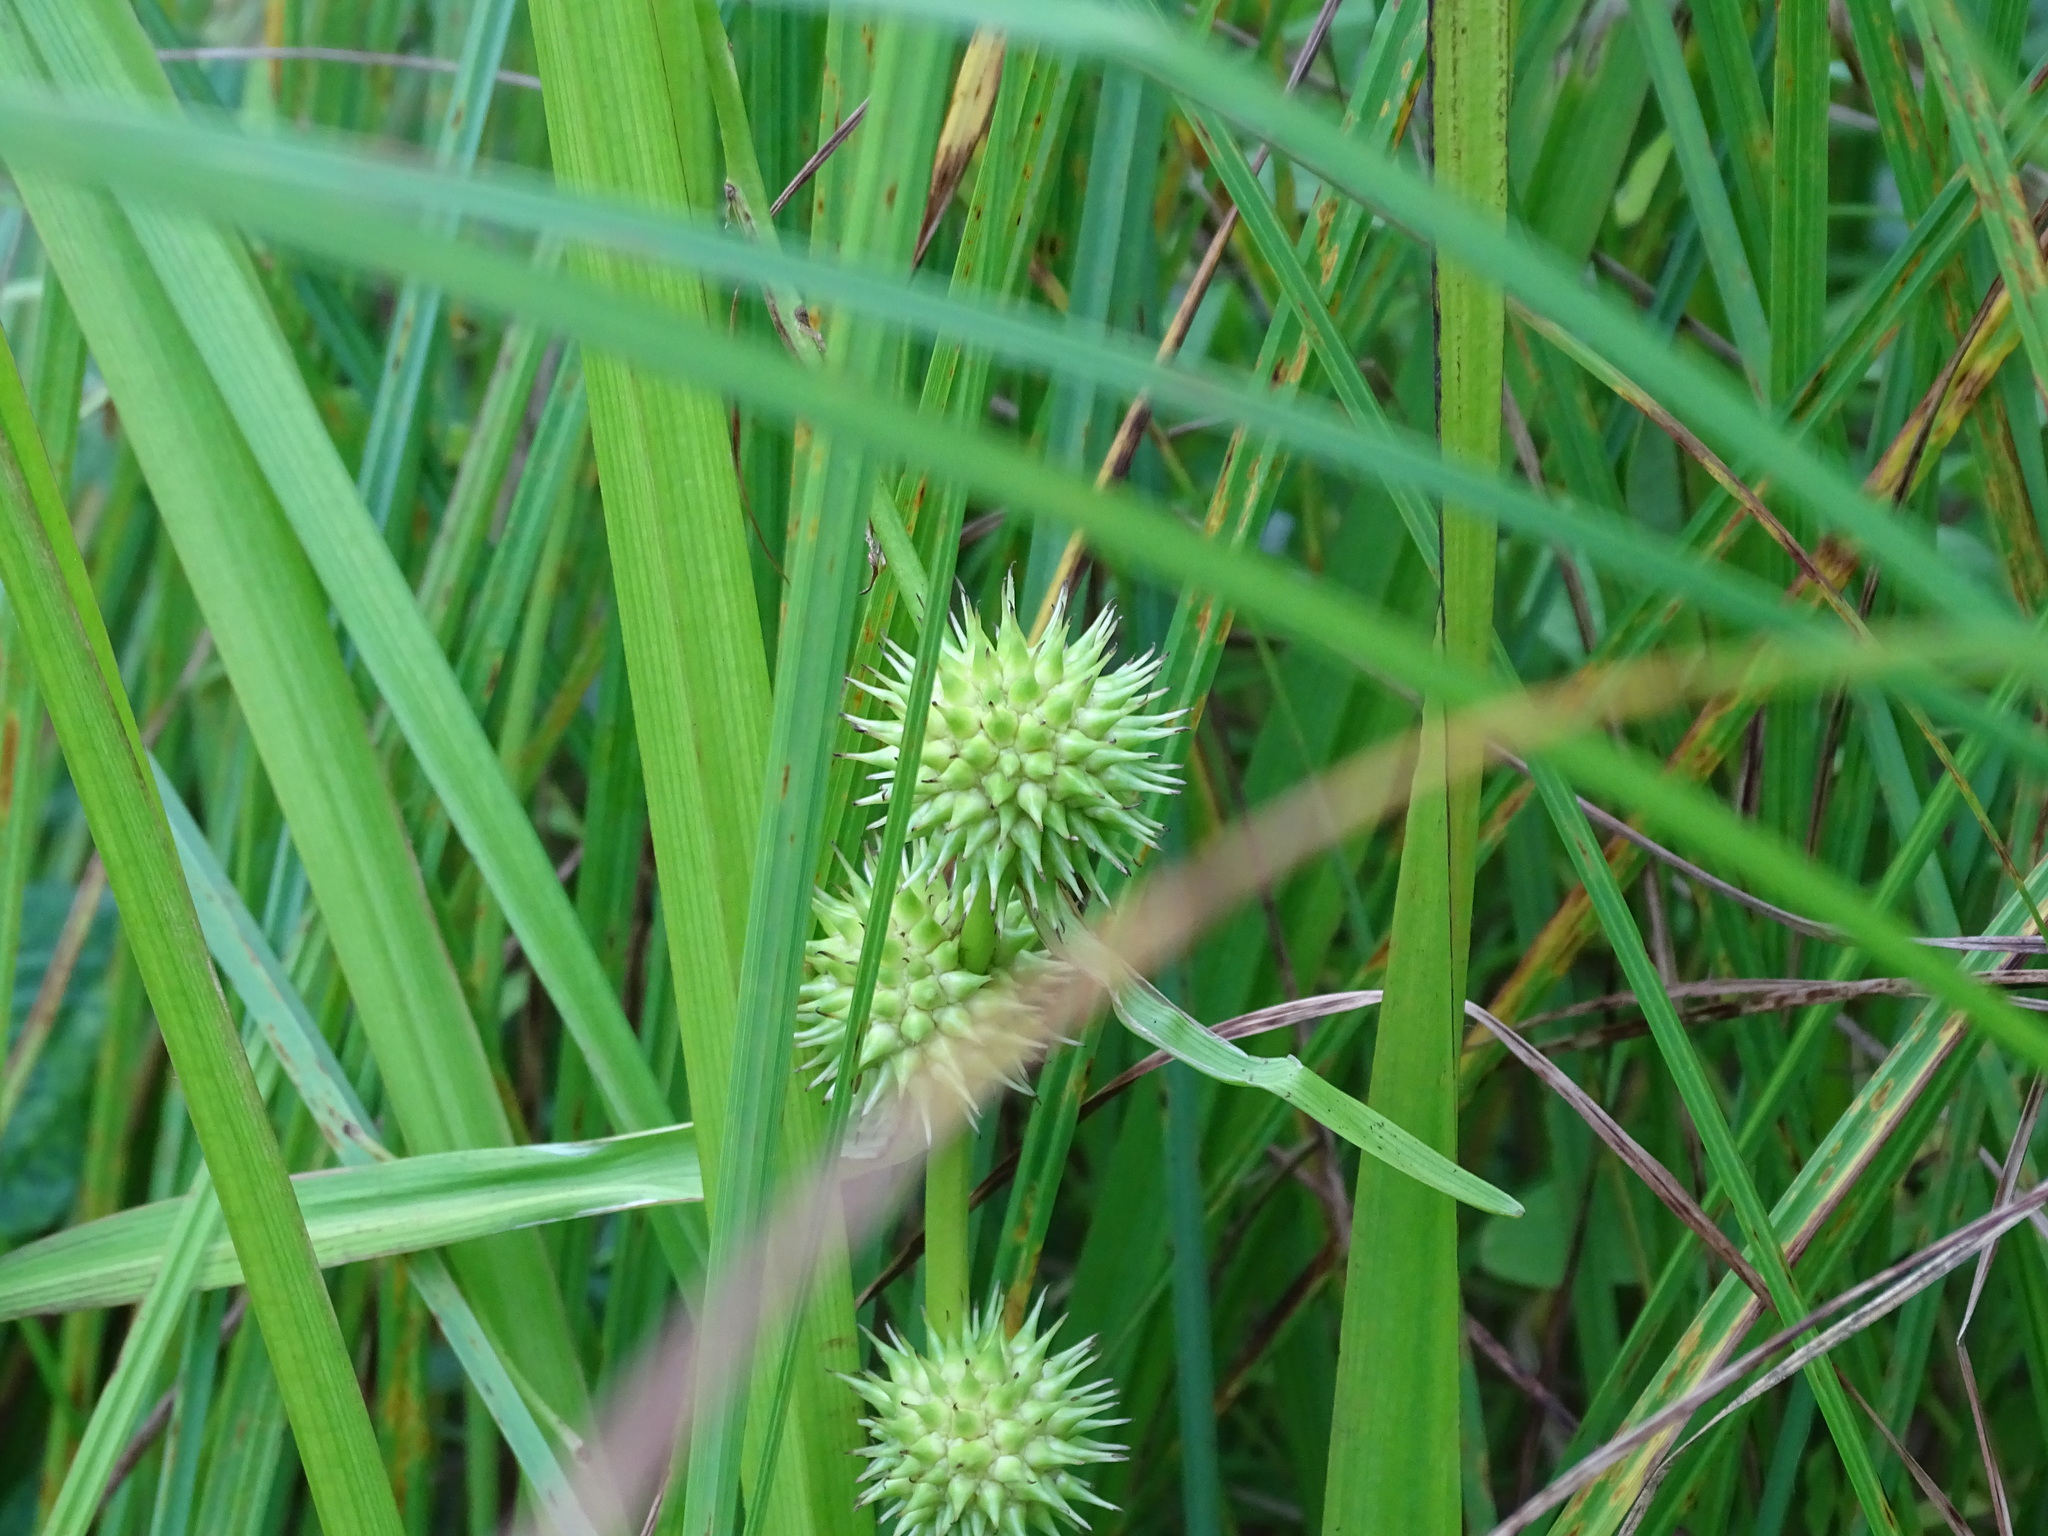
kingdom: Plantae
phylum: Tracheophyta
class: Liliopsida
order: Poales
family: Typhaceae
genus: Sparganium
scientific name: Sparganium americanum
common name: American burreed
